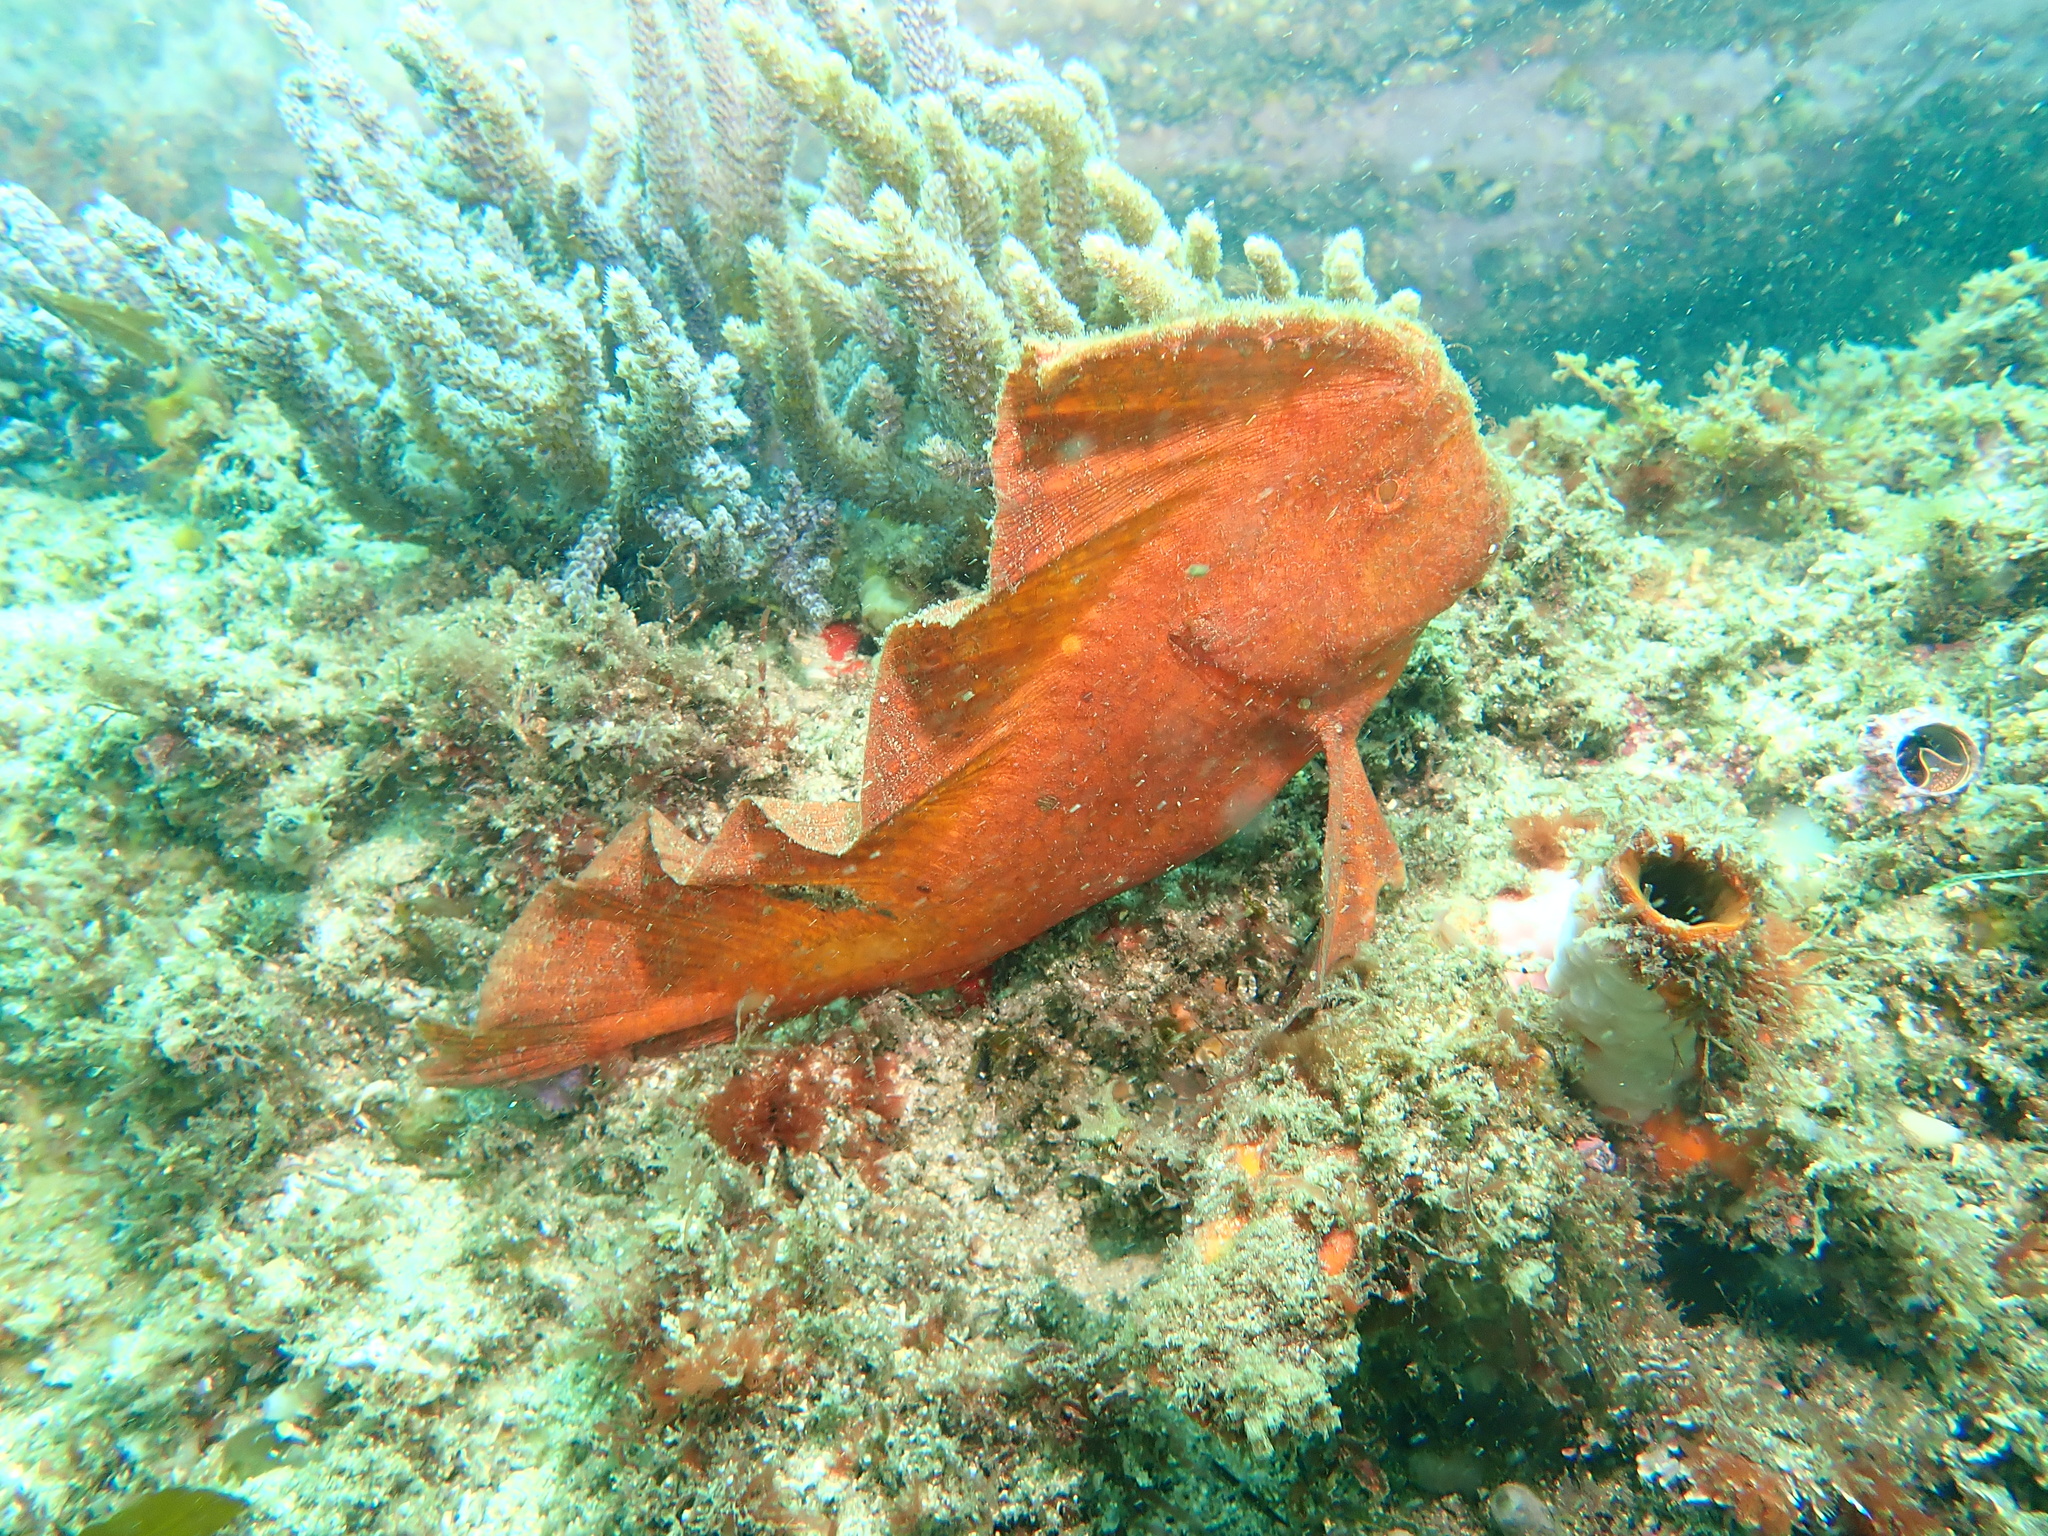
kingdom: Animalia
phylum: Chordata
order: Scorpaeniformes
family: Pataecidae
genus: Pataecus
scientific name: Pataecus fronto
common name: Red indianfish
